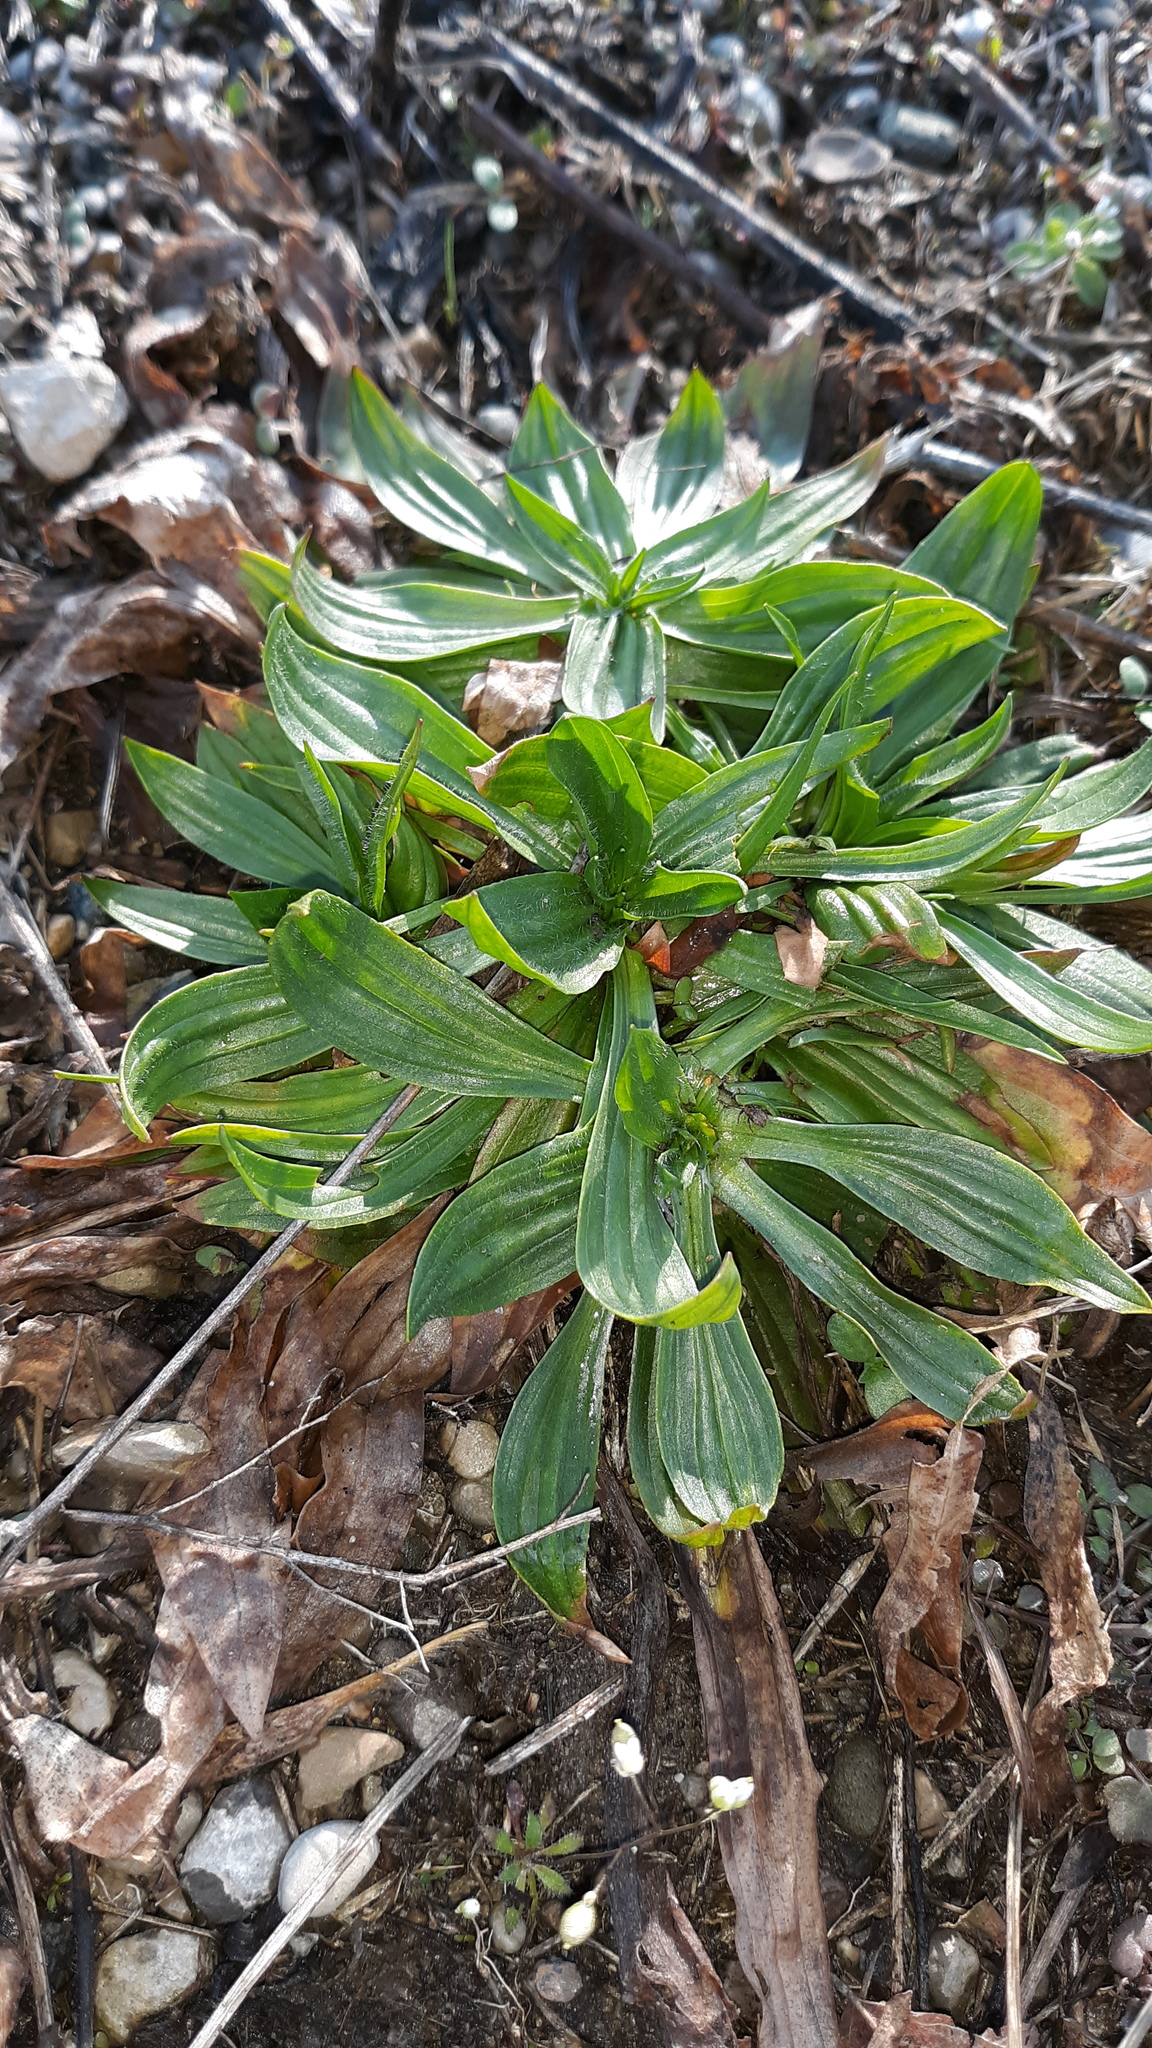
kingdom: Plantae
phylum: Tracheophyta
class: Magnoliopsida
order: Lamiales
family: Plantaginaceae
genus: Plantago
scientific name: Plantago lanceolata
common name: Ribwort plantain
